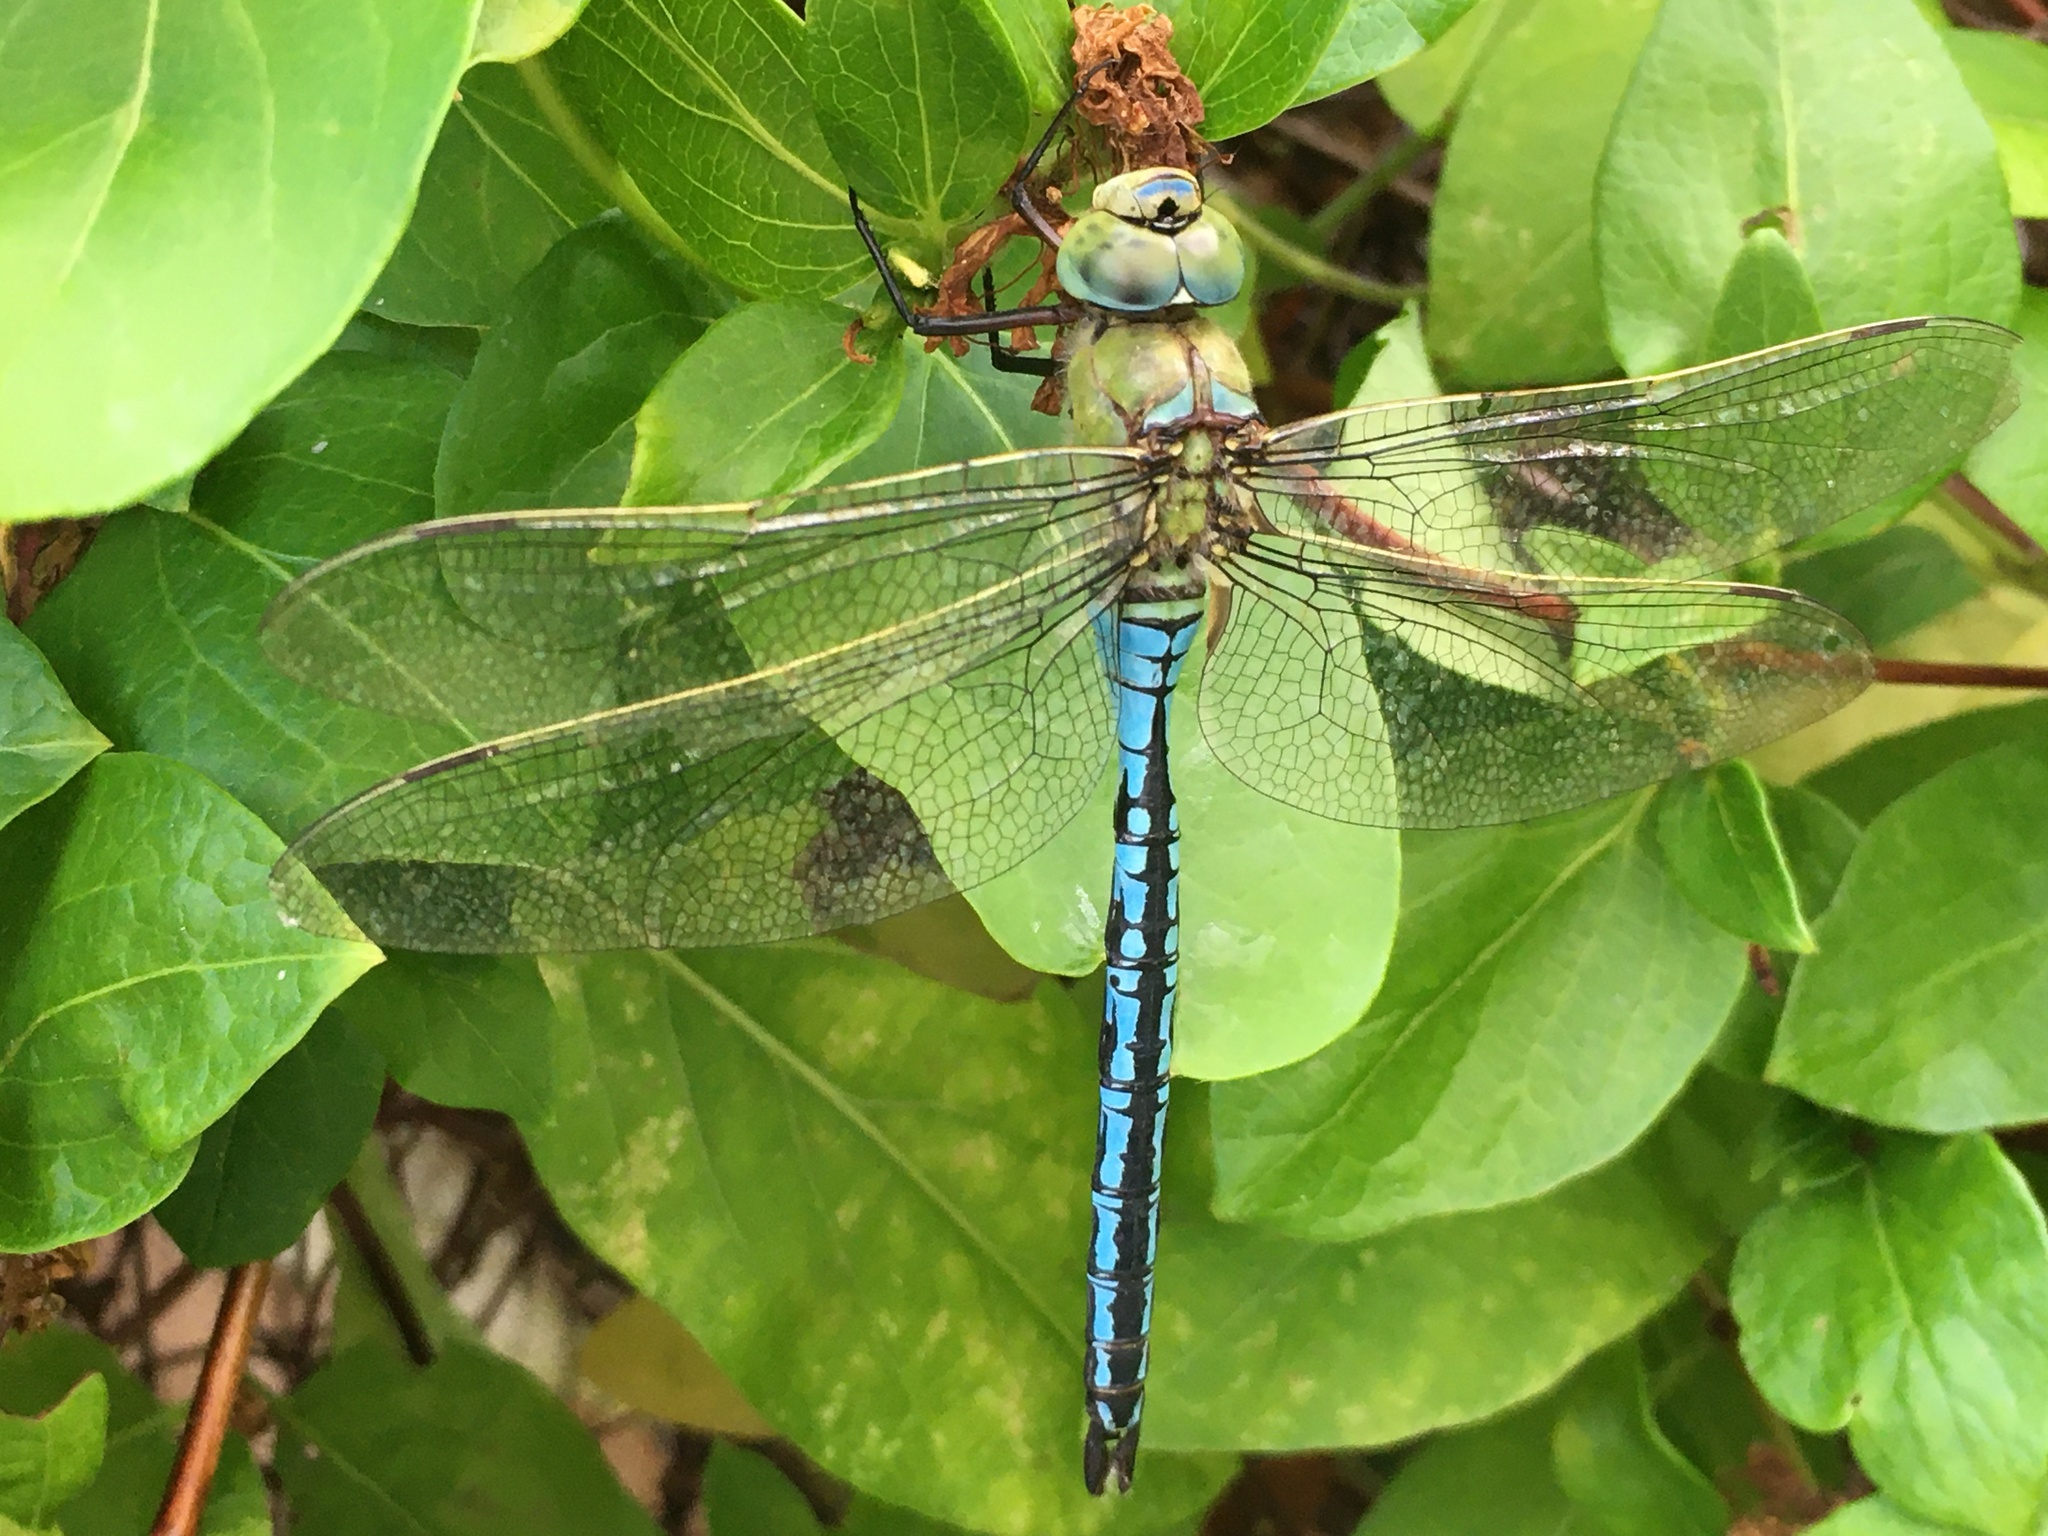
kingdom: Animalia
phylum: Arthropoda
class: Insecta
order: Odonata
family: Aeshnidae
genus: Anax
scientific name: Anax imperator
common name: Emperor dragonfly
